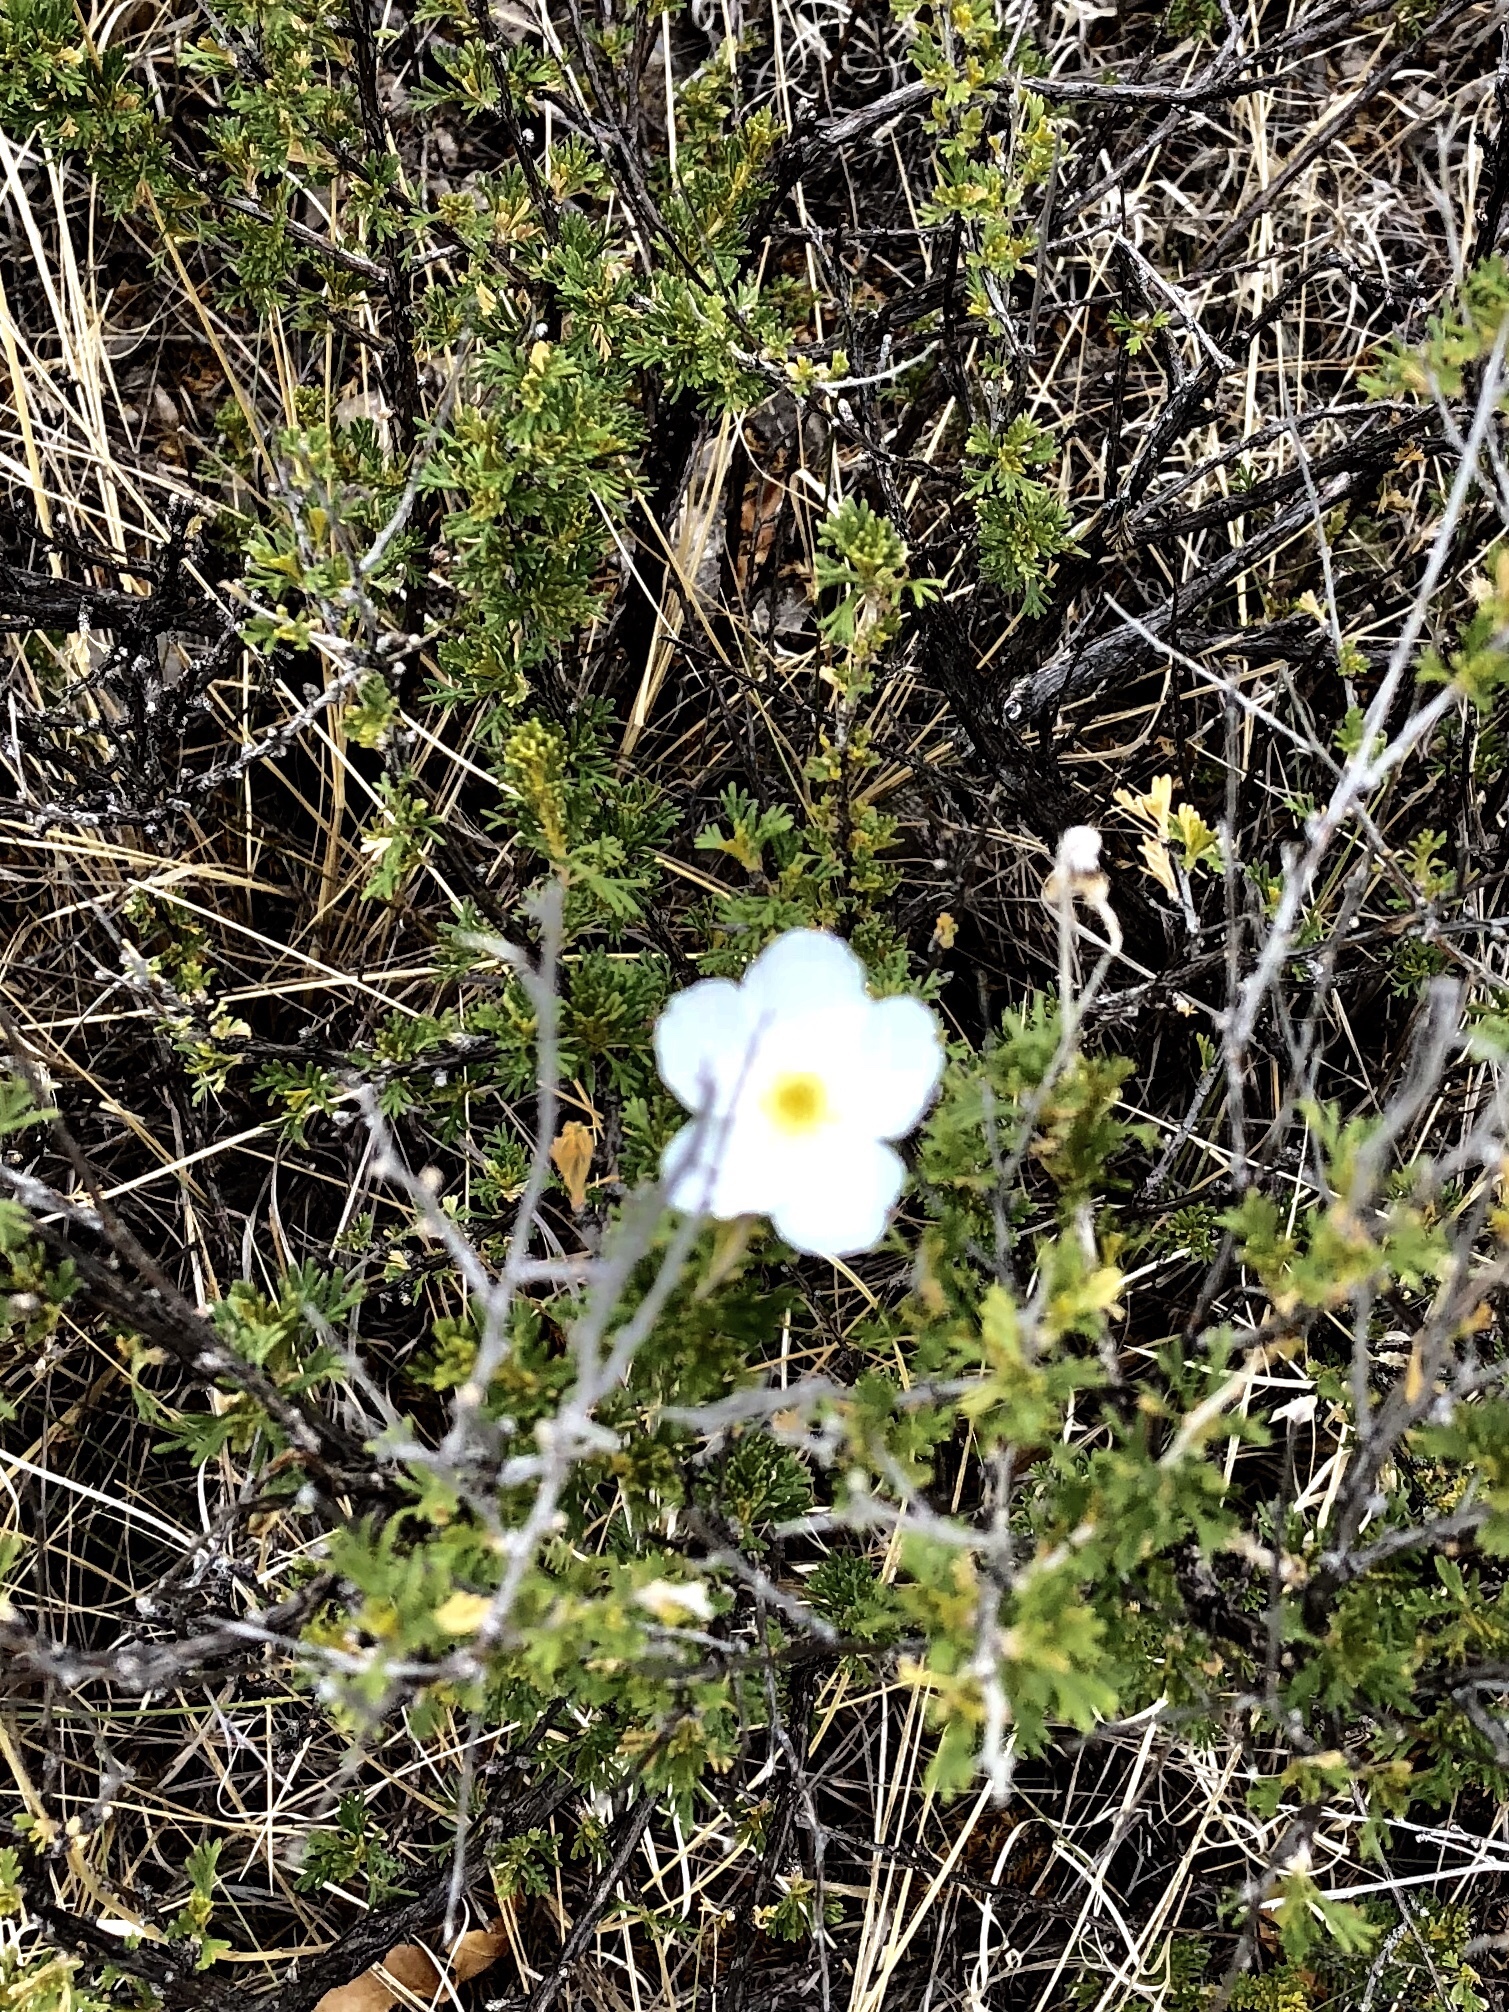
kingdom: Plantae
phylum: Tracheophyta
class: Magnoliopsida
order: Rosales
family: Rosaceae
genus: Fallugia
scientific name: Fallugia paradoxa
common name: Apache-plume
